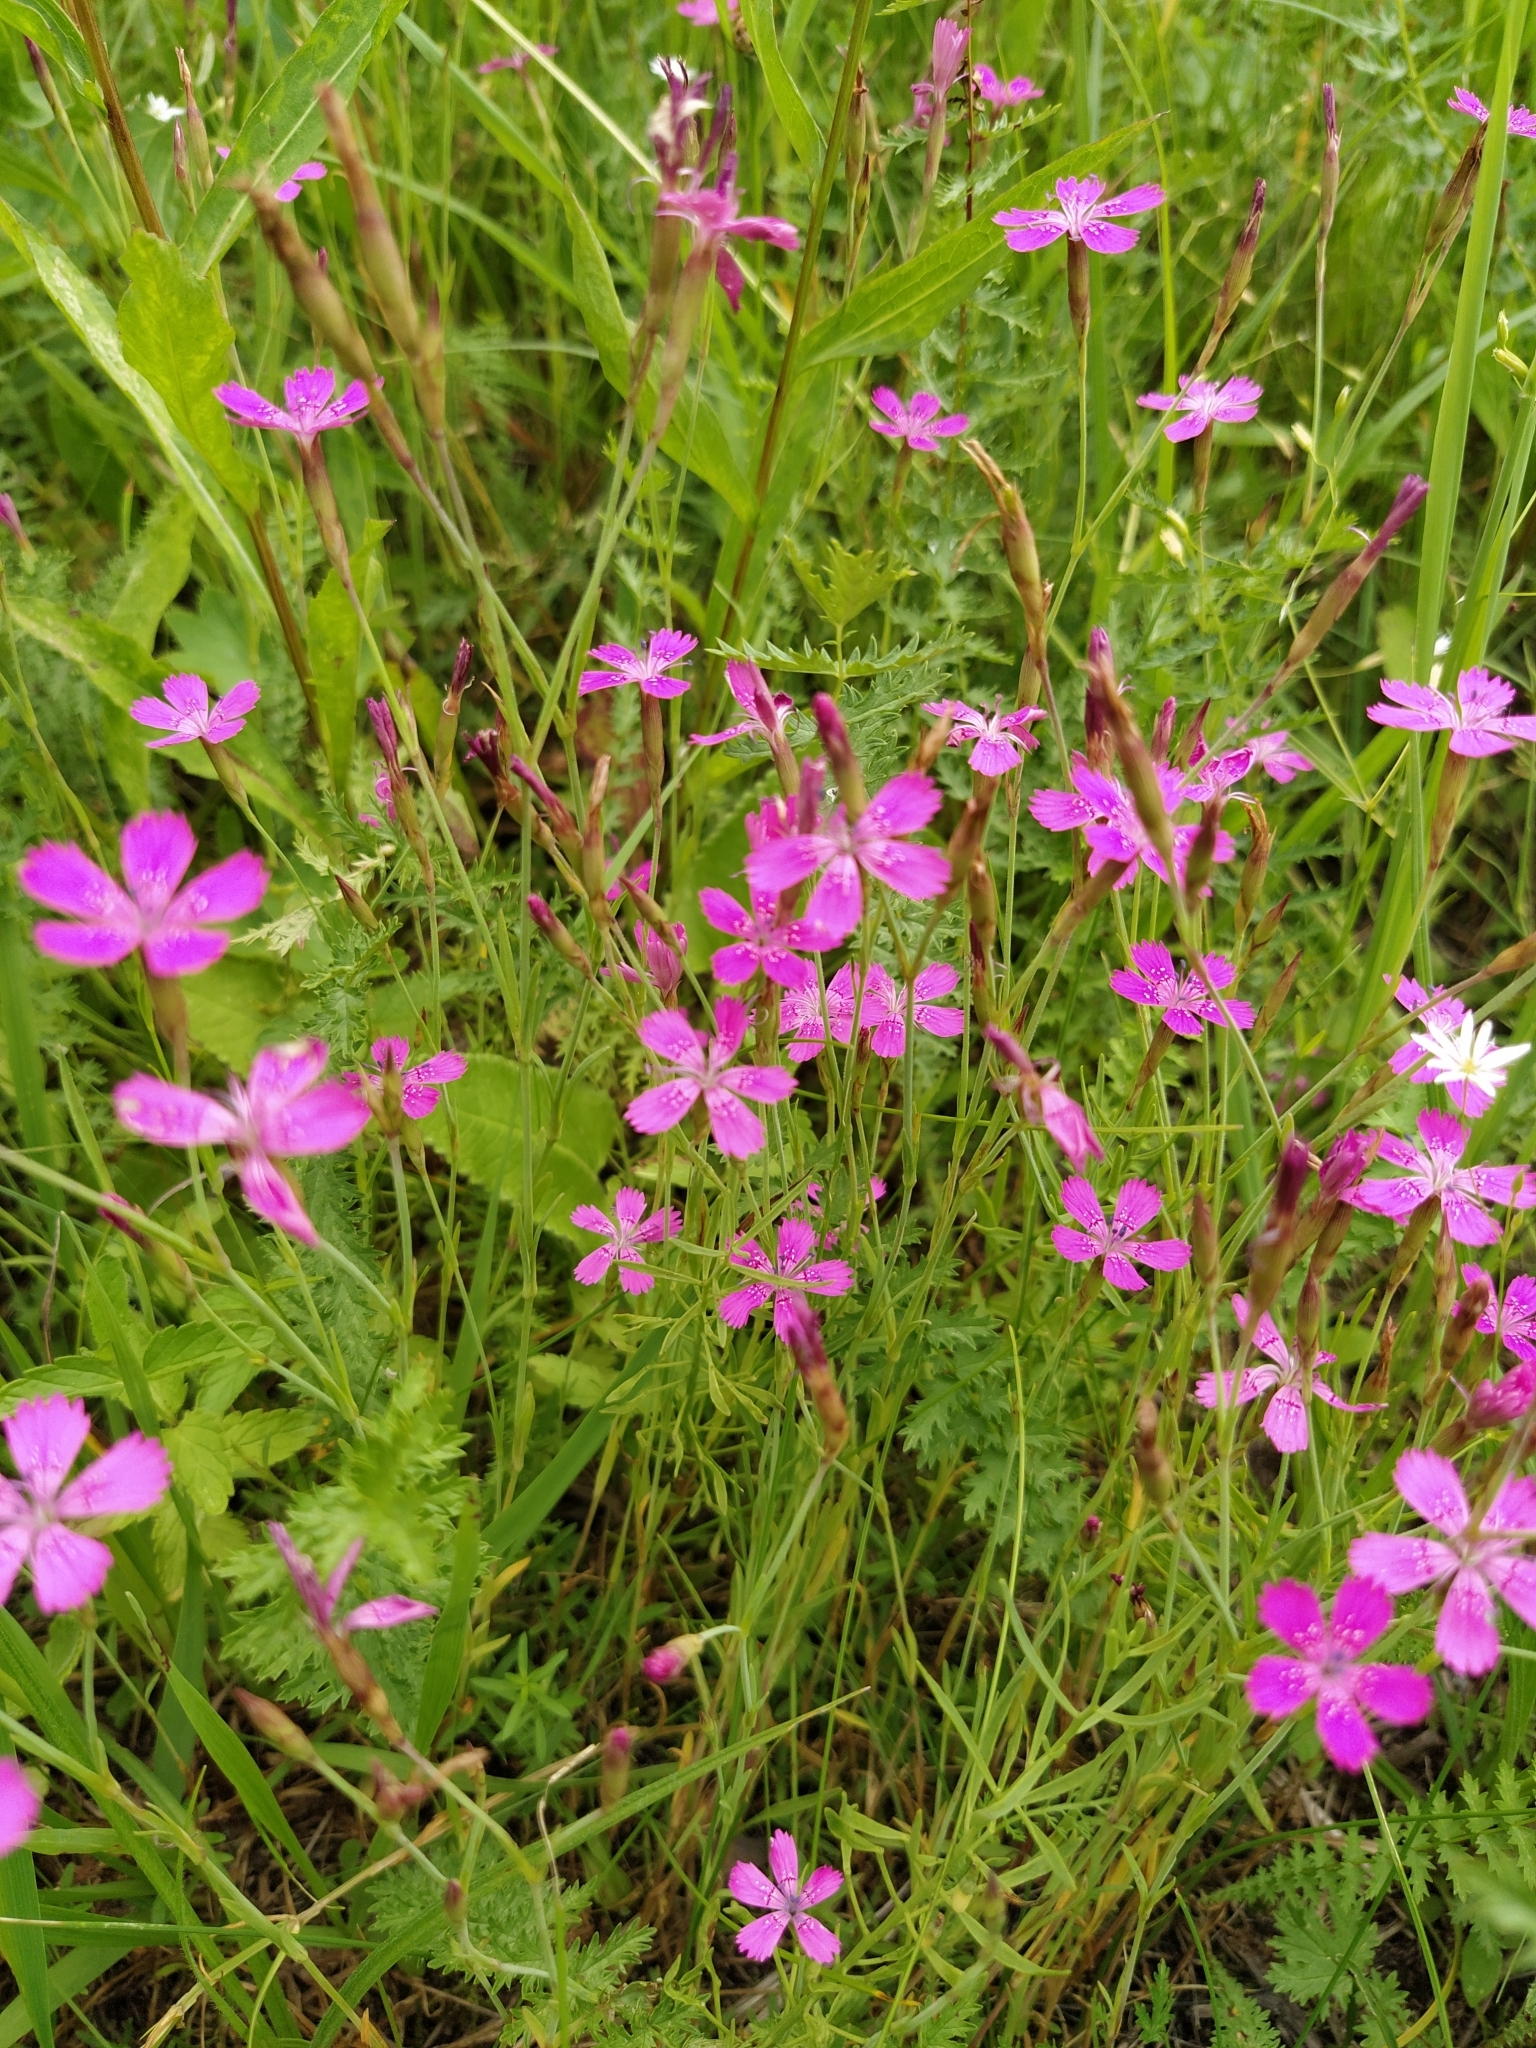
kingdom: Plantae
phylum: Tracheophyta
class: Magnoliopsida
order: Caryophyllales
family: Caryophyllaceae
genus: Dianthus
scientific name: Dianthus deltoides
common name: Maiden pink
